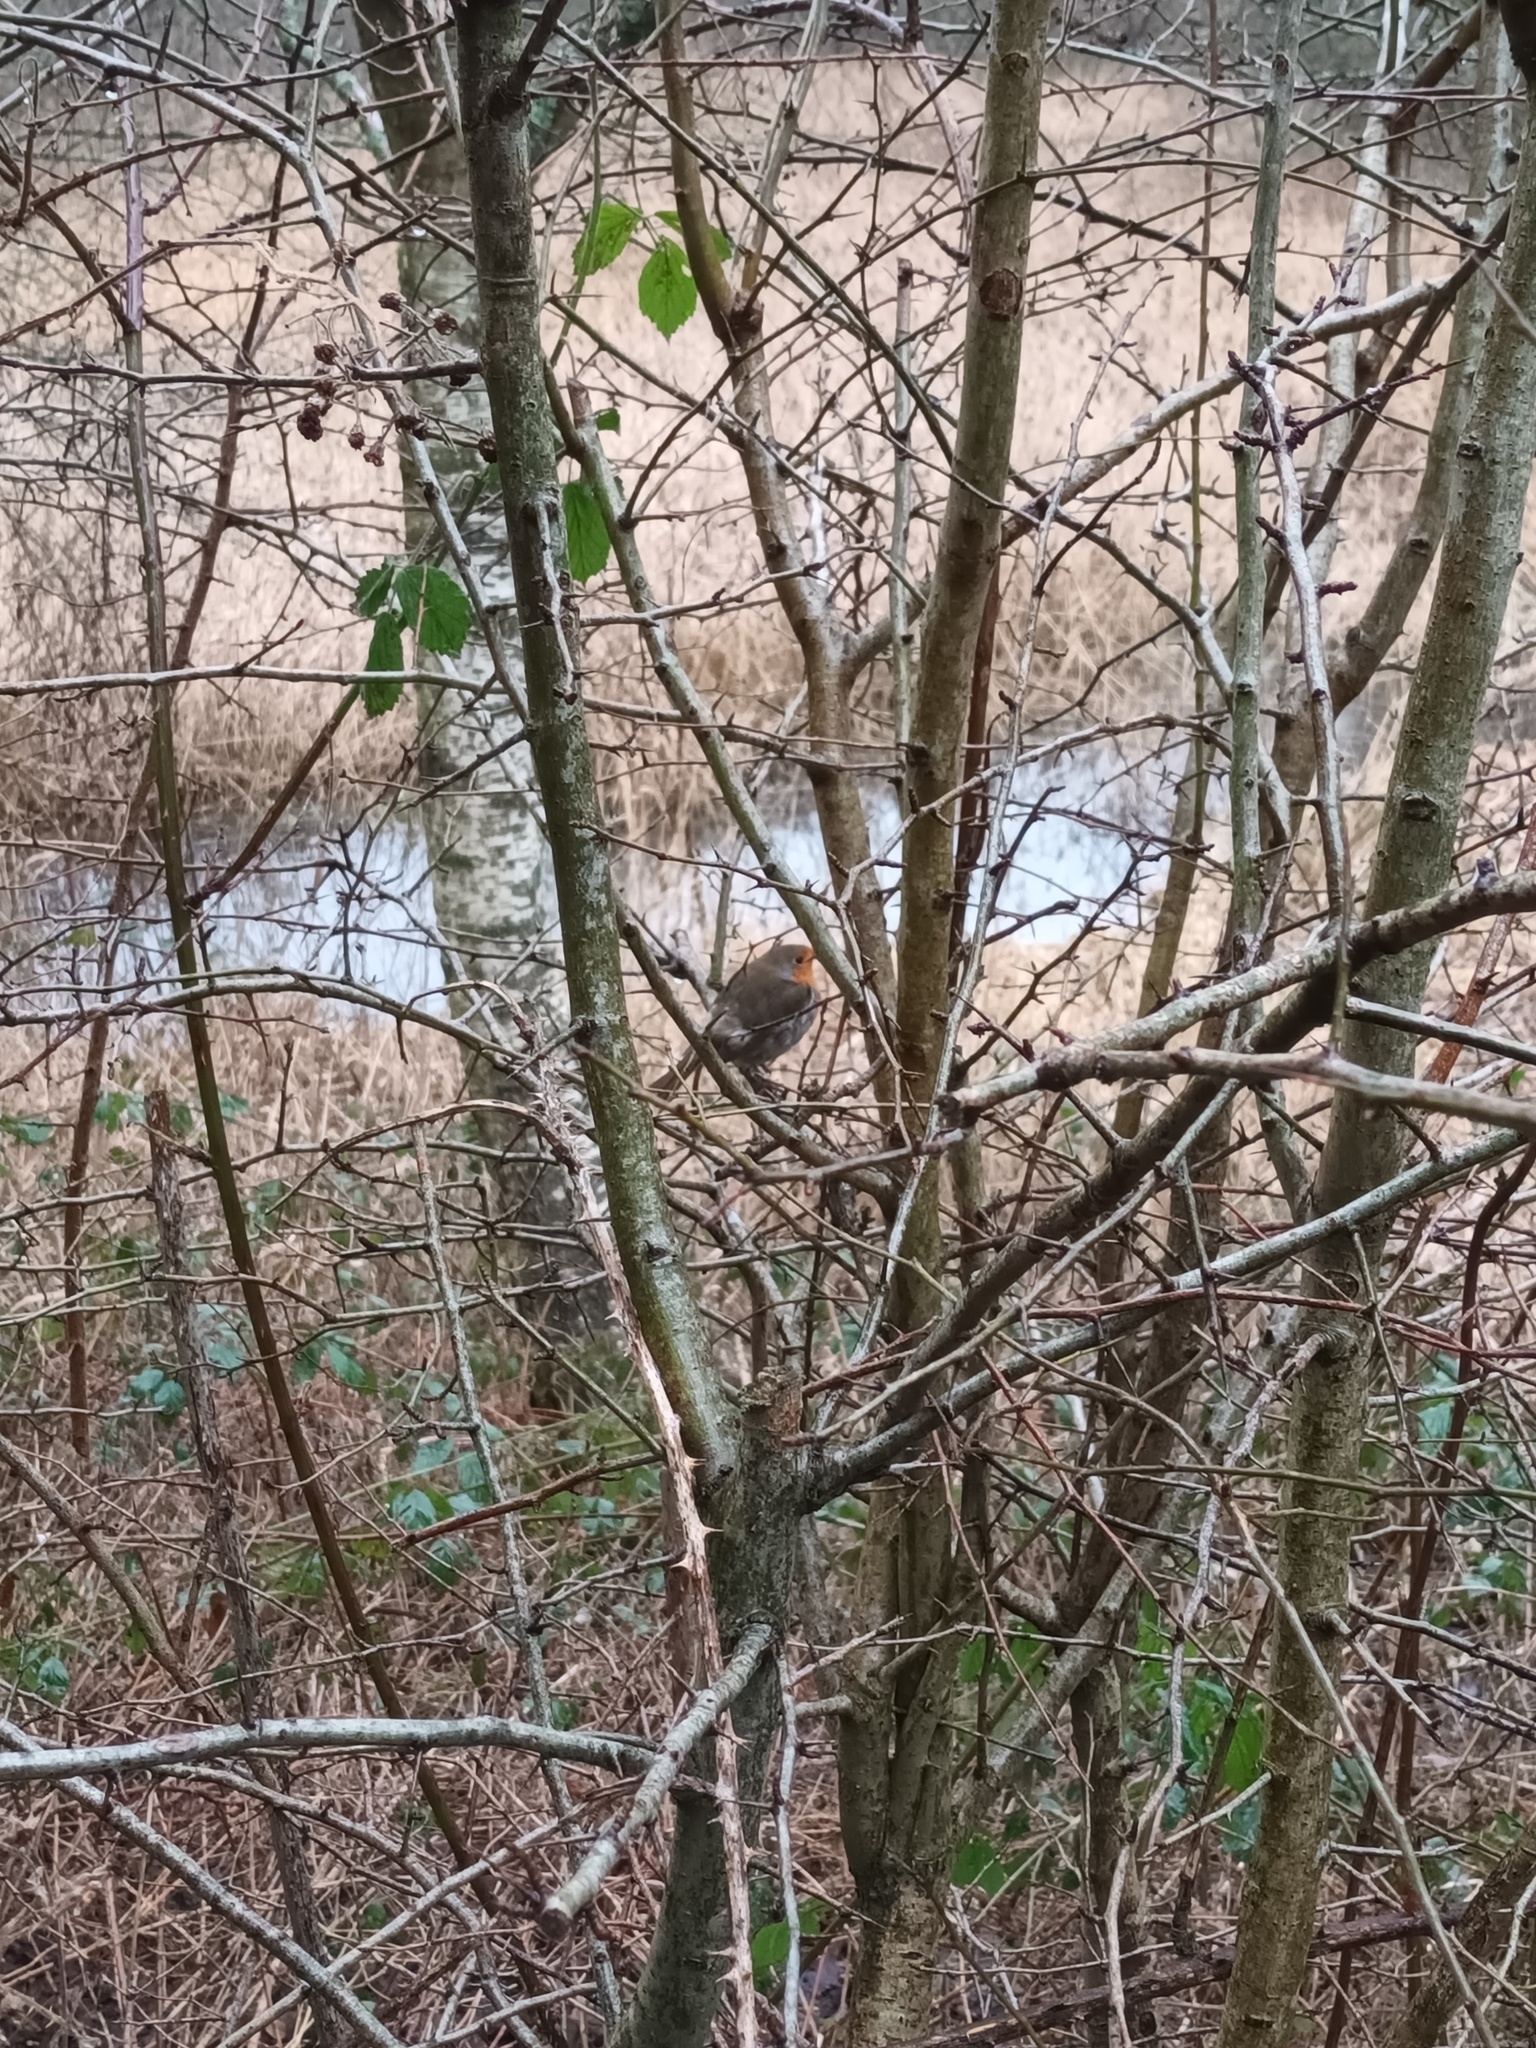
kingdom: Animalia
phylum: Chordata
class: Aves
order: Passeriformes
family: Muscicapidae
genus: Erithacus
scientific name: Erithacus rubecula
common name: European robin
